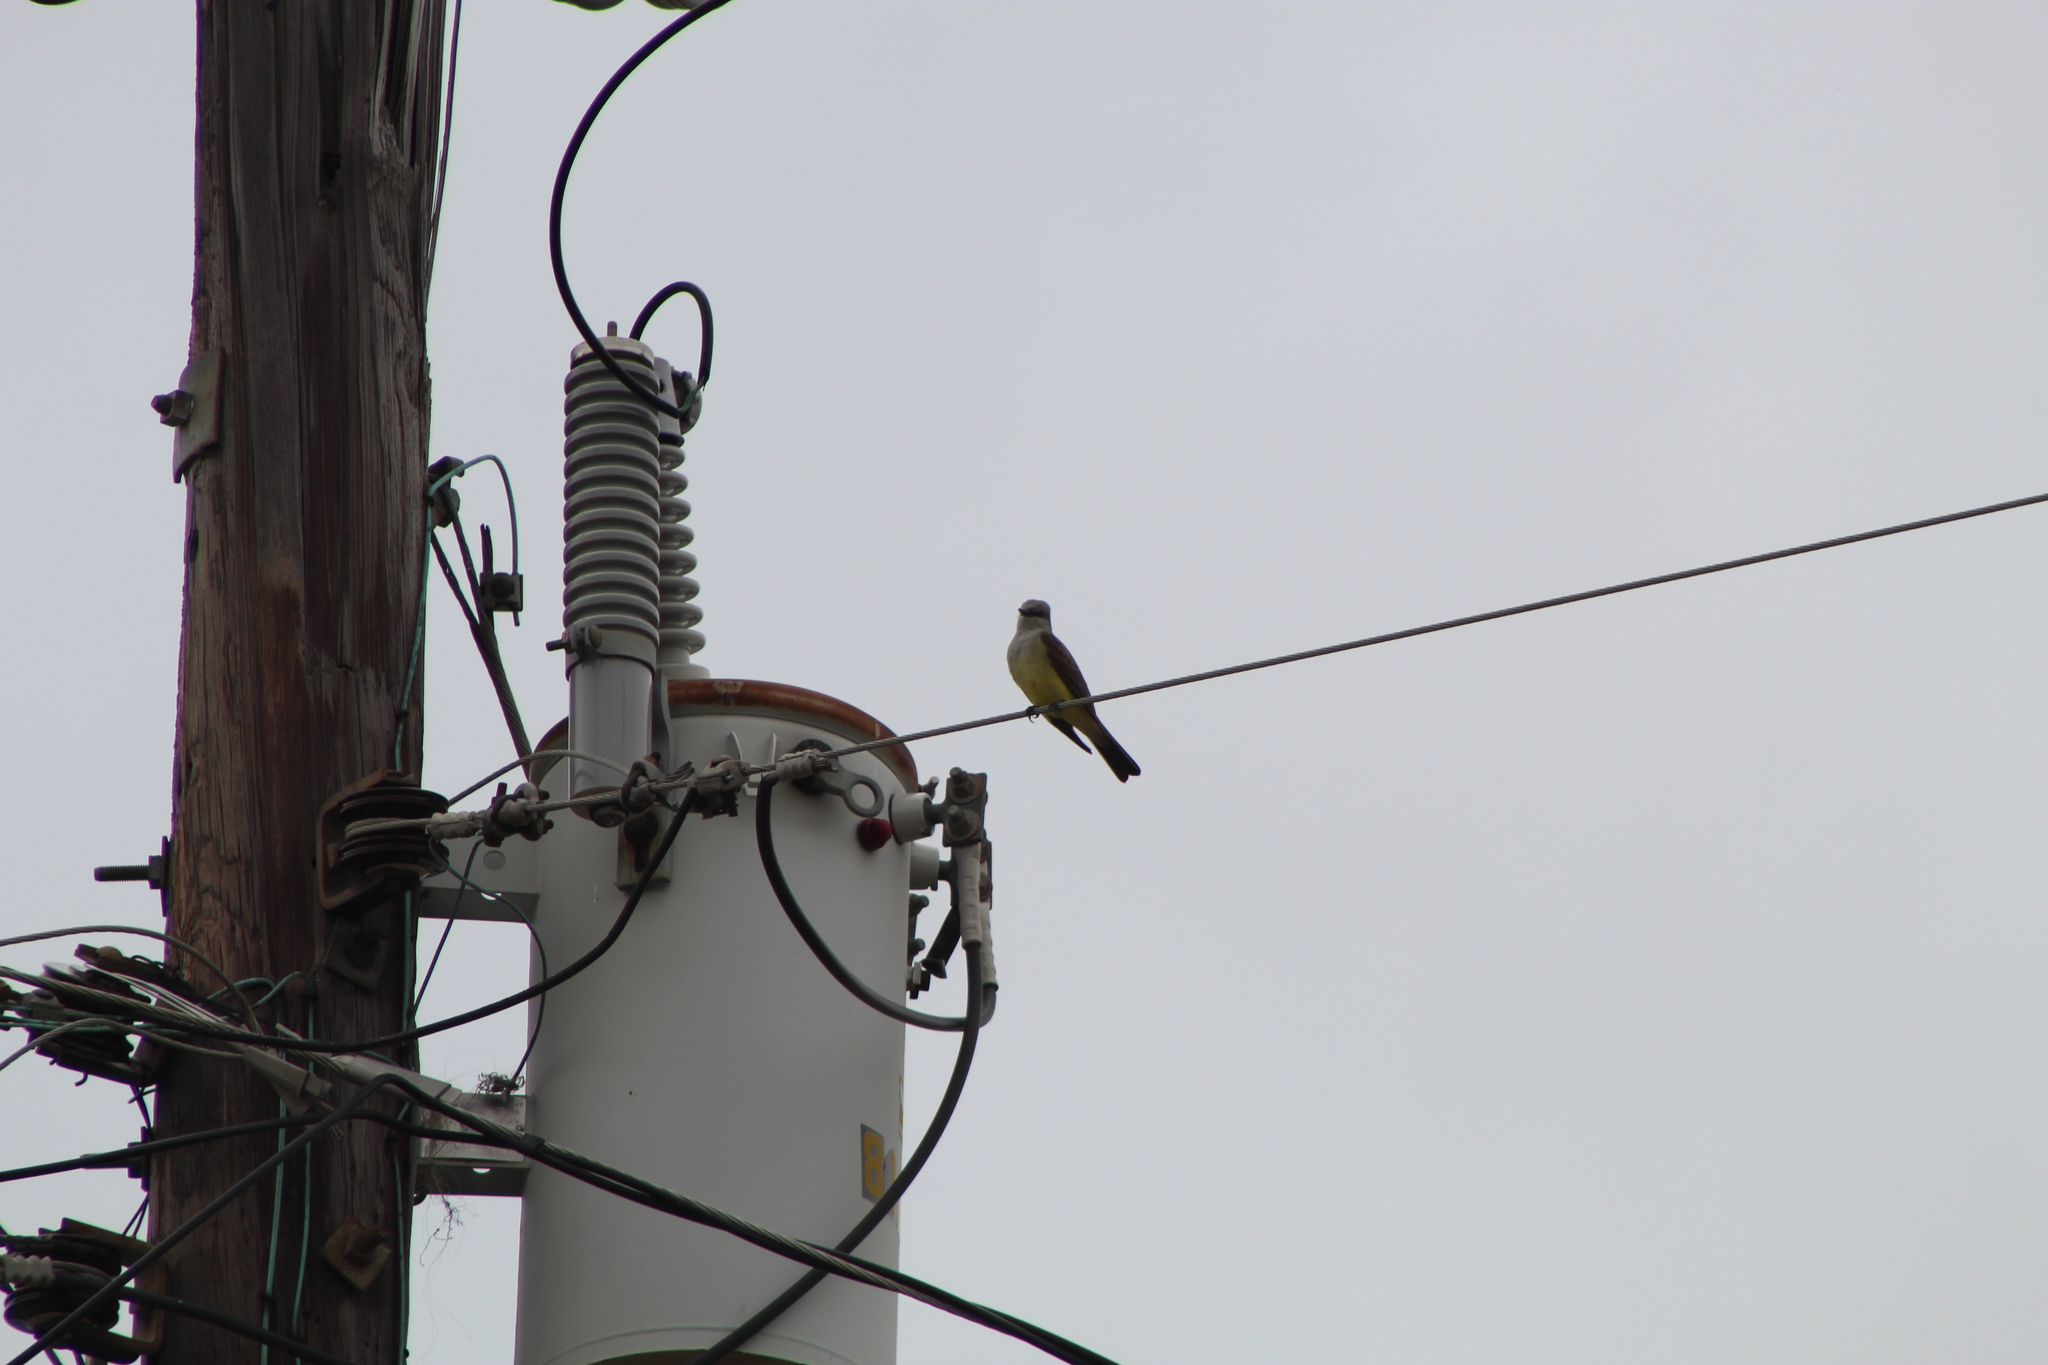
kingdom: Animalia
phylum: Chordata
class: Aves
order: Passeriformes
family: Tyrannidae
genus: Tyrannus
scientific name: Tyrannus verticalis
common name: Western kingbird
